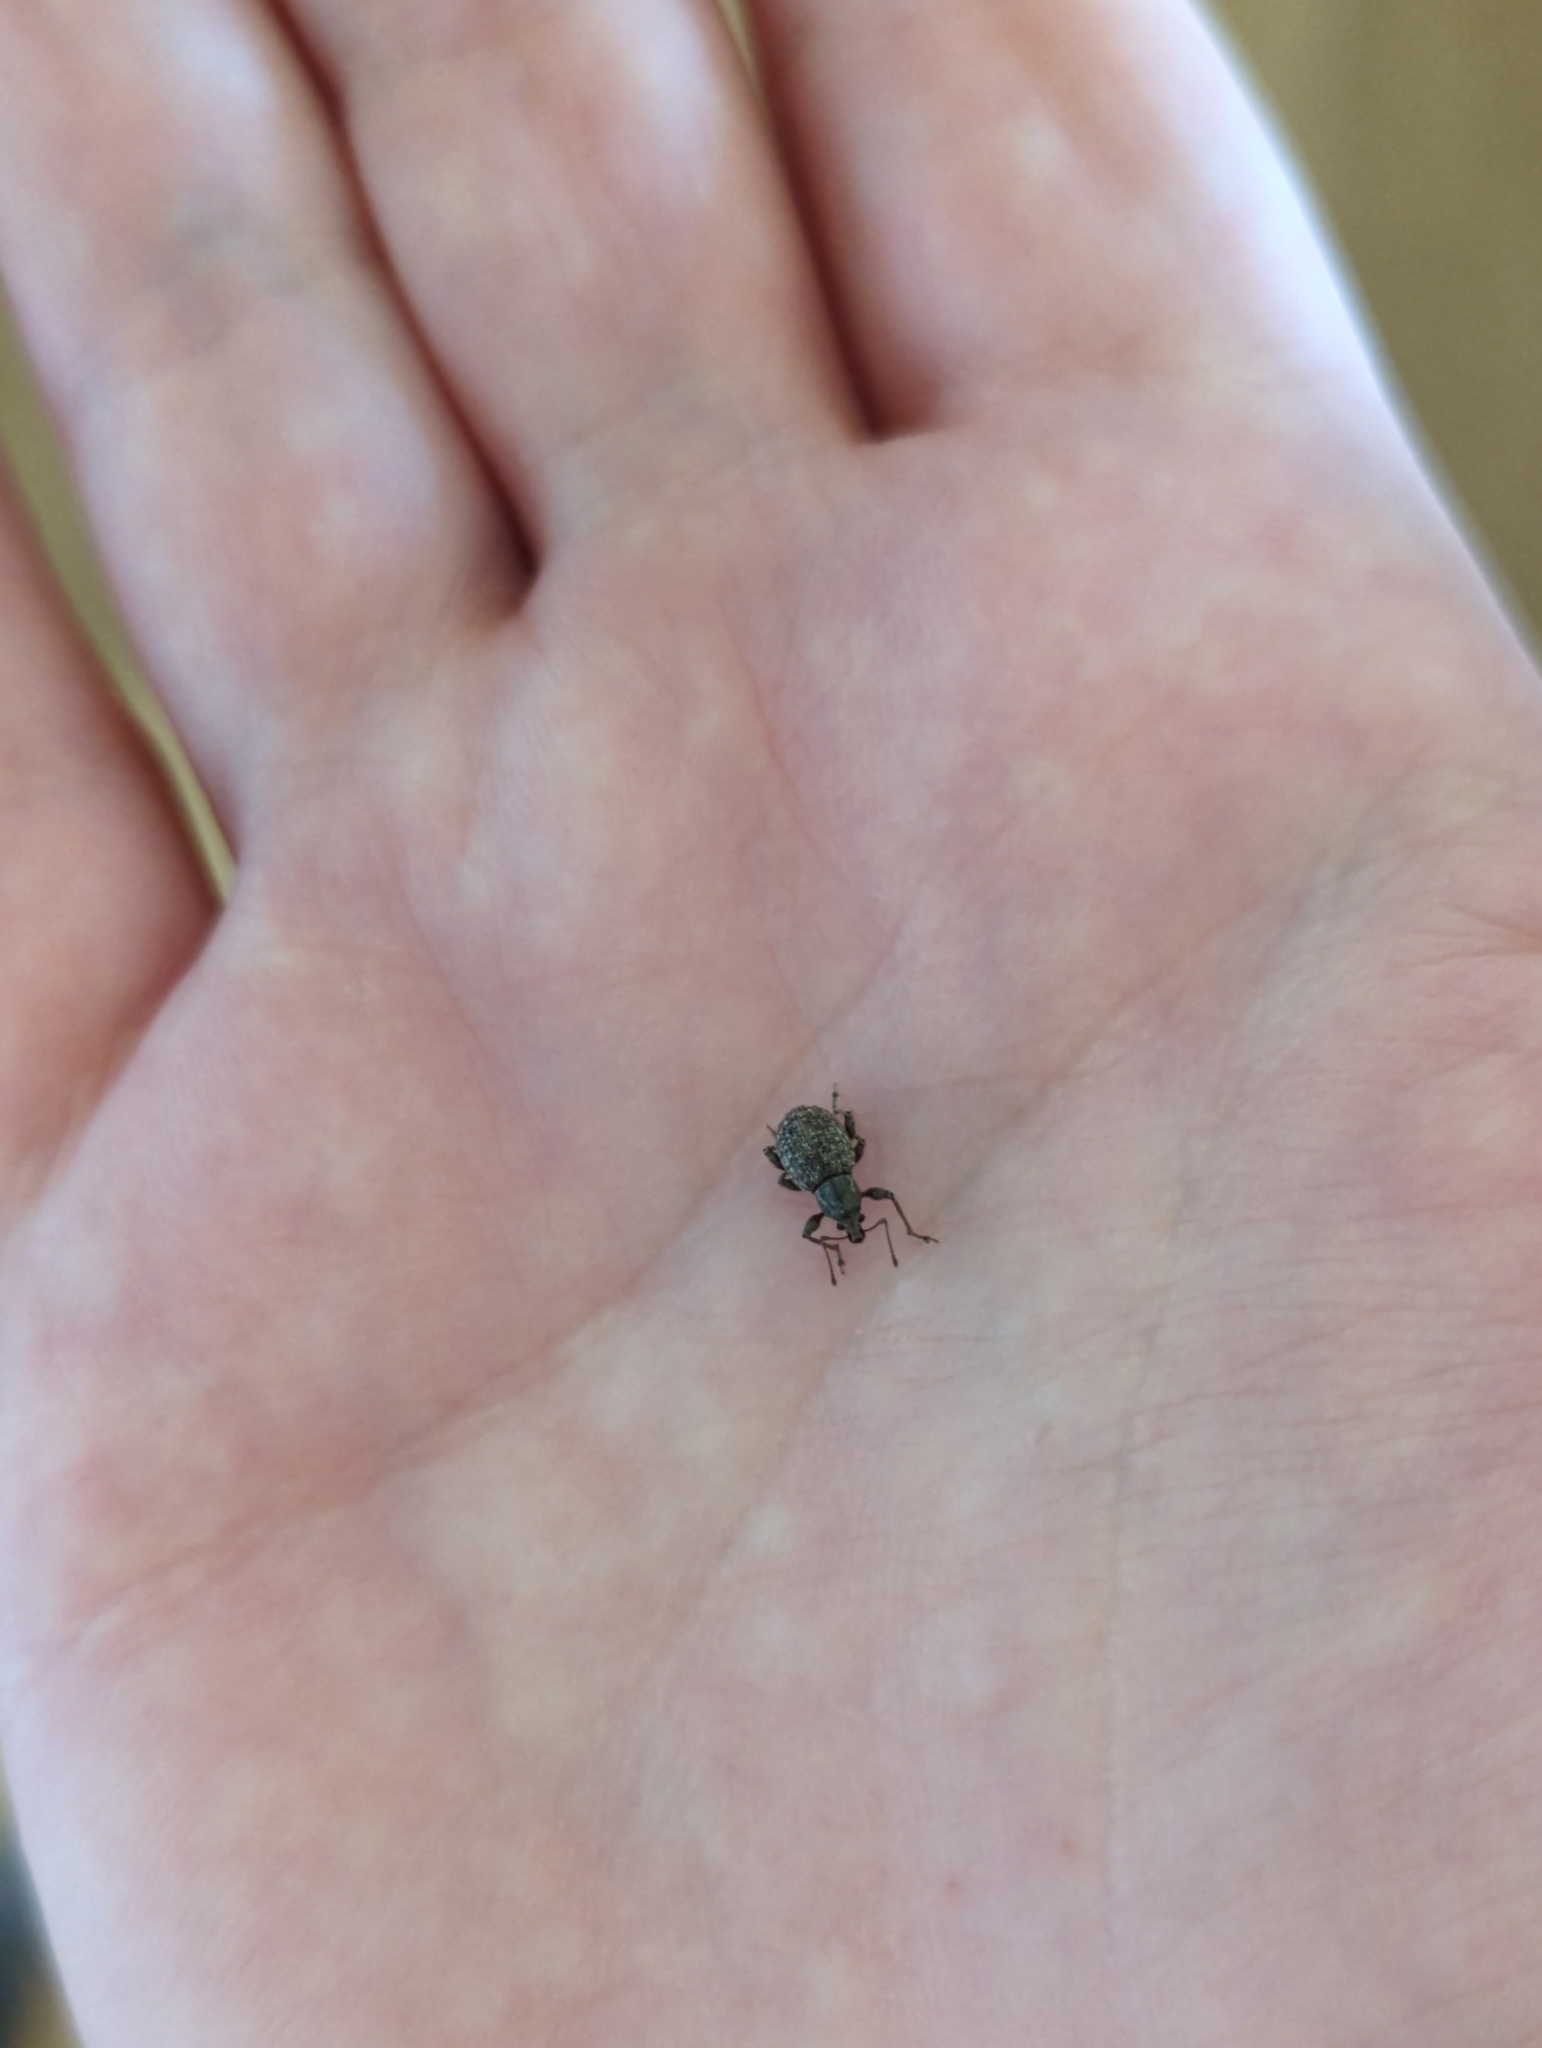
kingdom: Animalia
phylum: Arthropoda
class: Insecta
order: Coleoptera
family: Curculionidae
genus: Phlyctinus
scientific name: Phlyctinus callosus
